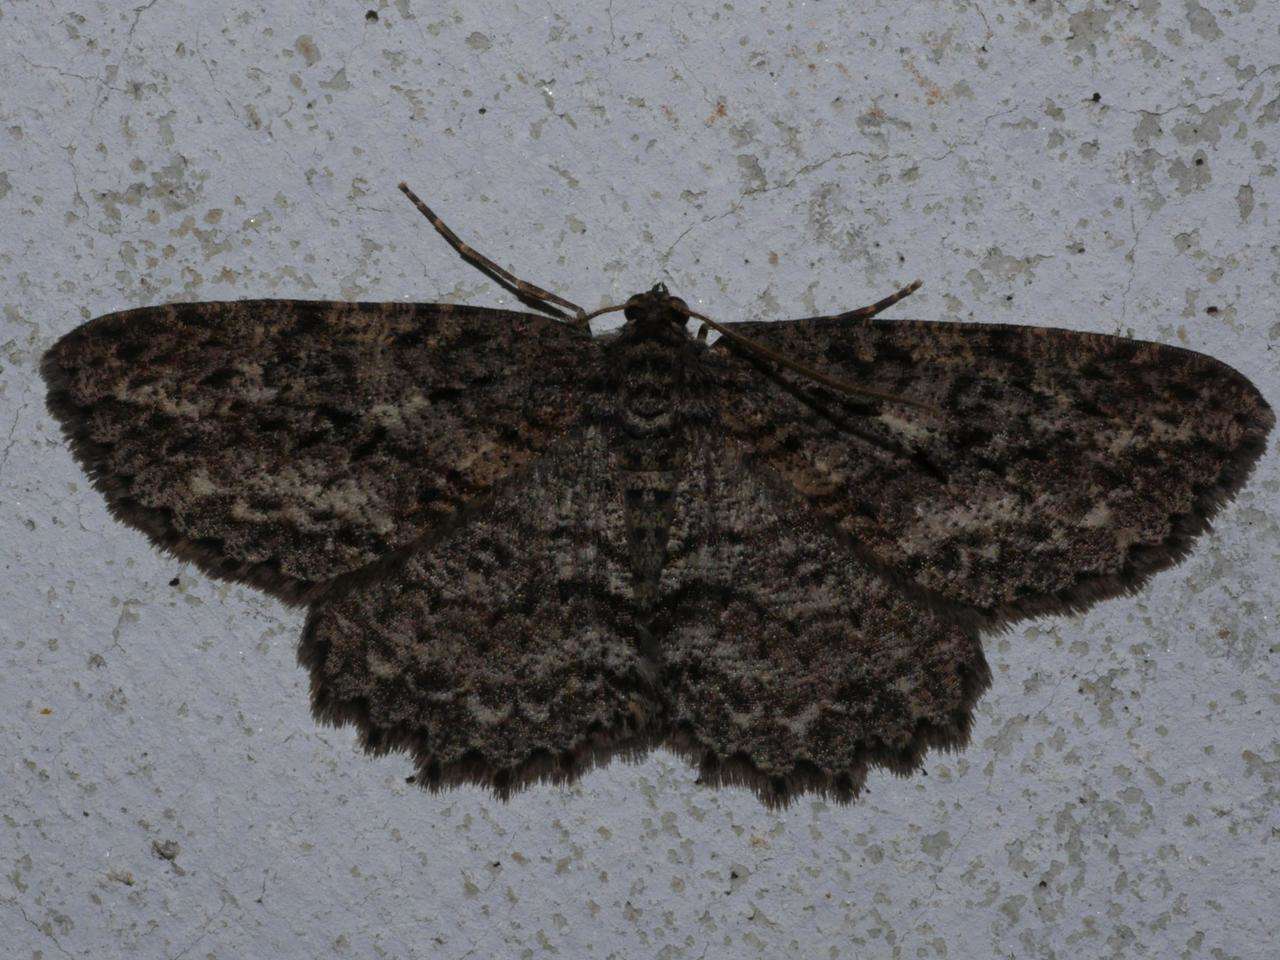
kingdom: Animalia
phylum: Arthropoda
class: Insecta
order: Lepidoptera
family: Geometridae
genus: Ectropis
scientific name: Ectropis fractaria
